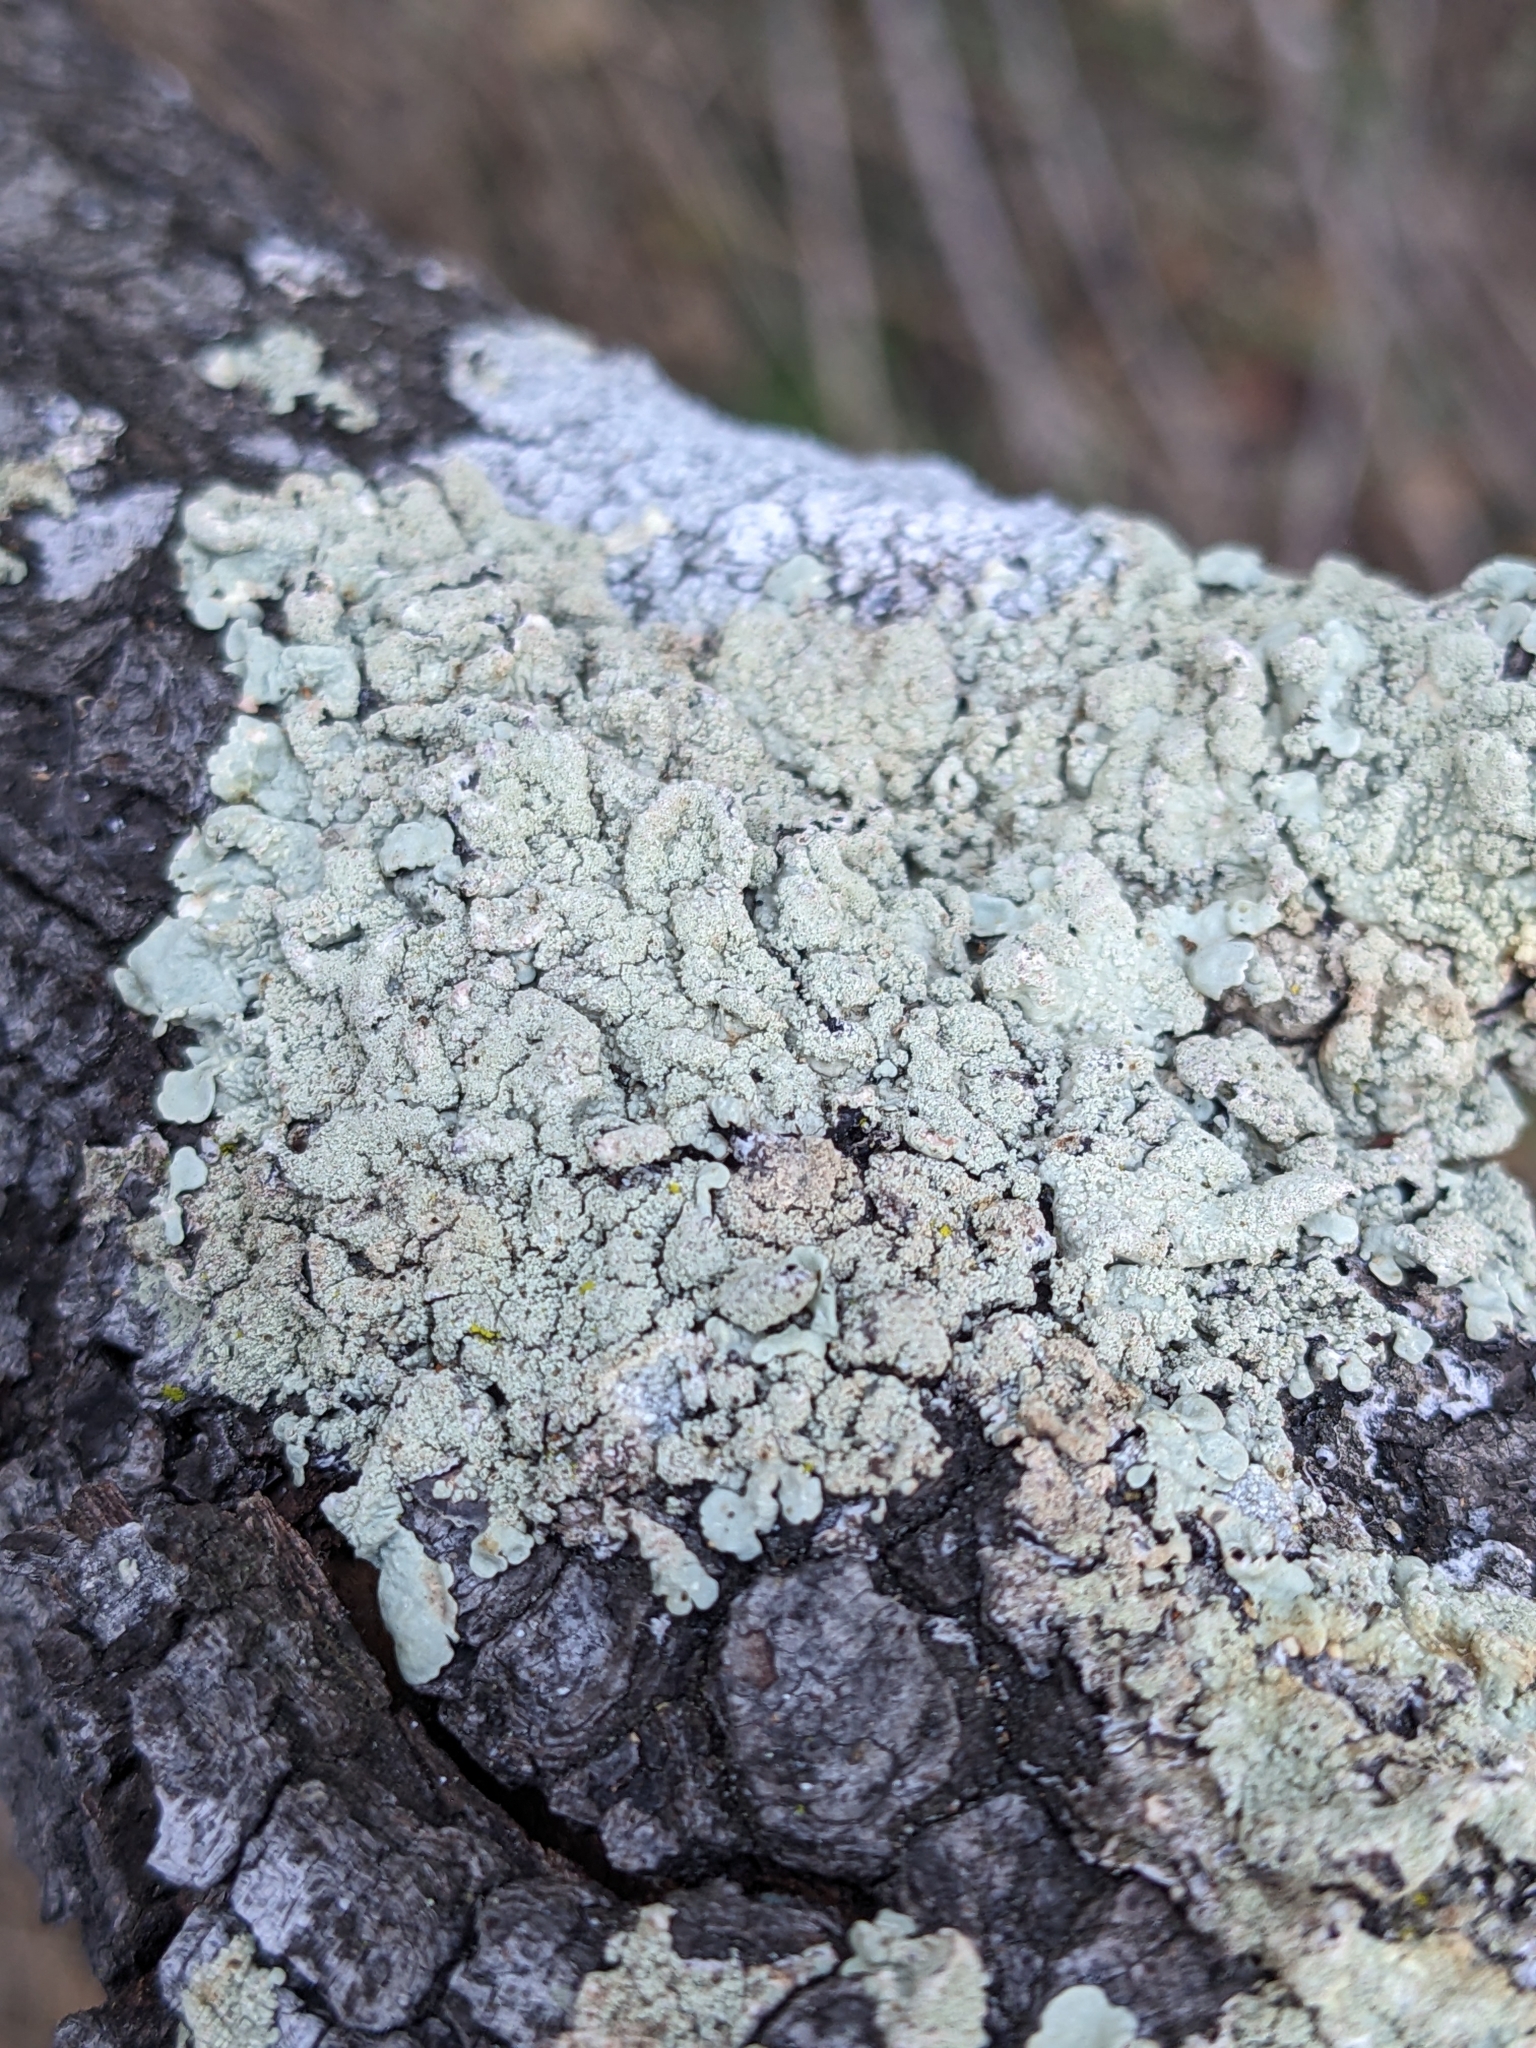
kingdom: Fungi
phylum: Ascomycota
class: Lecanoromycetes
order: Lecanorales
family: Parmeliaceae
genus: Flavoparmelia
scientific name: Flavoparmelia caperata
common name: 40-mile per hour lichen
